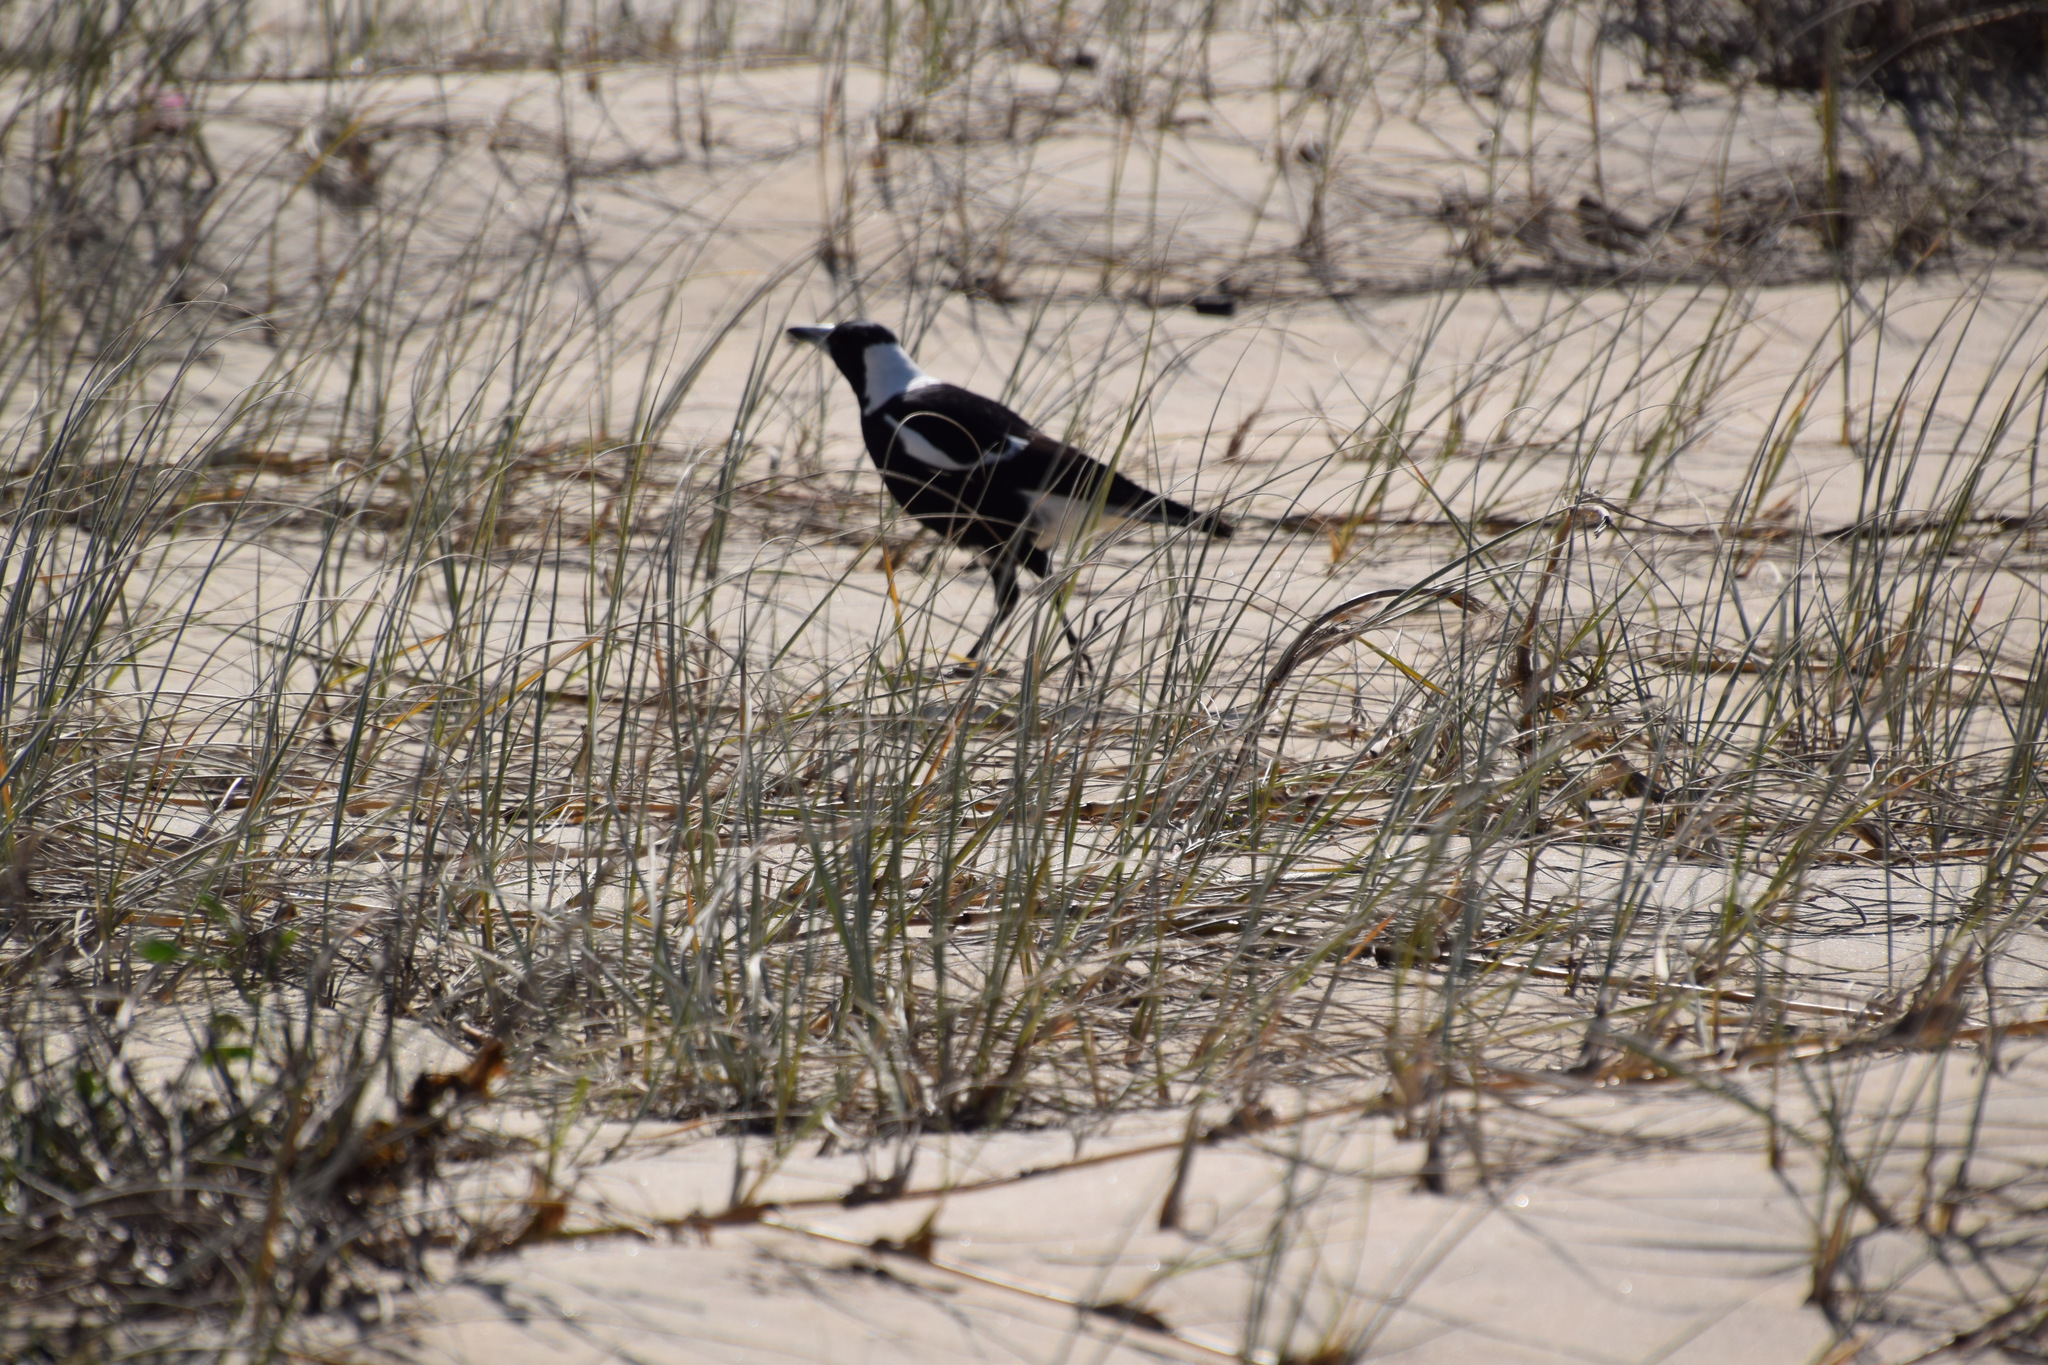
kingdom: Animalia
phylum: Chordata
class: Aves
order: Passeriformes
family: Cracticidae
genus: Gymnorhina
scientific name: Gymnorhina tibicen
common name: Australian magpie
